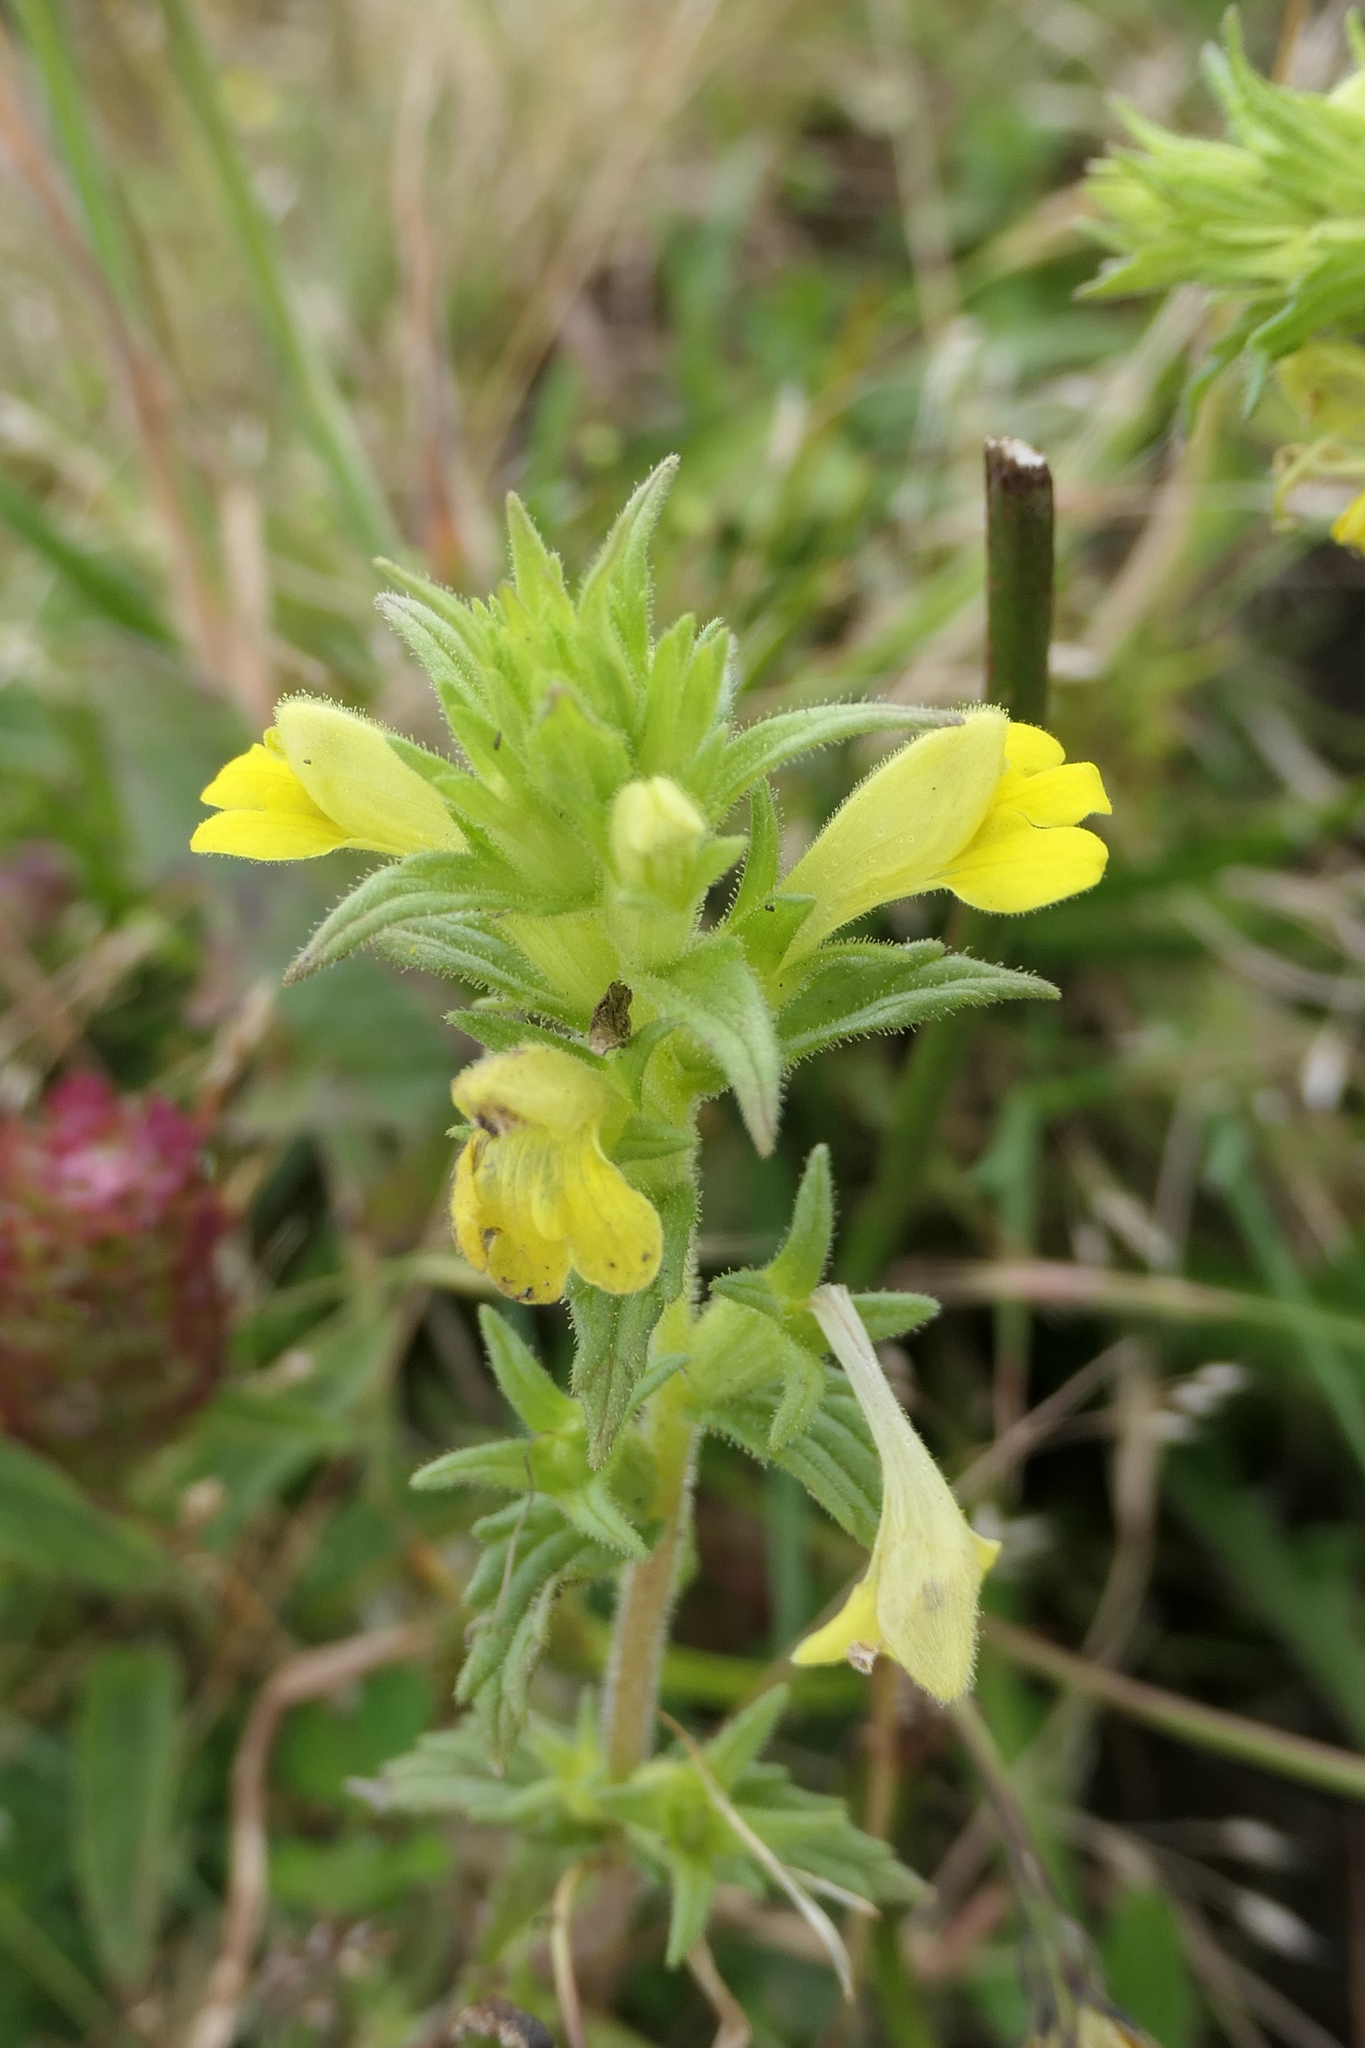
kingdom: Plantae
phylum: Tracheophyta
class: Magnoliopsida
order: Lamiales
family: Orobanchaceae
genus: Bellardia
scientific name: Bellardia viscosa
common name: Sticky parentucellia
